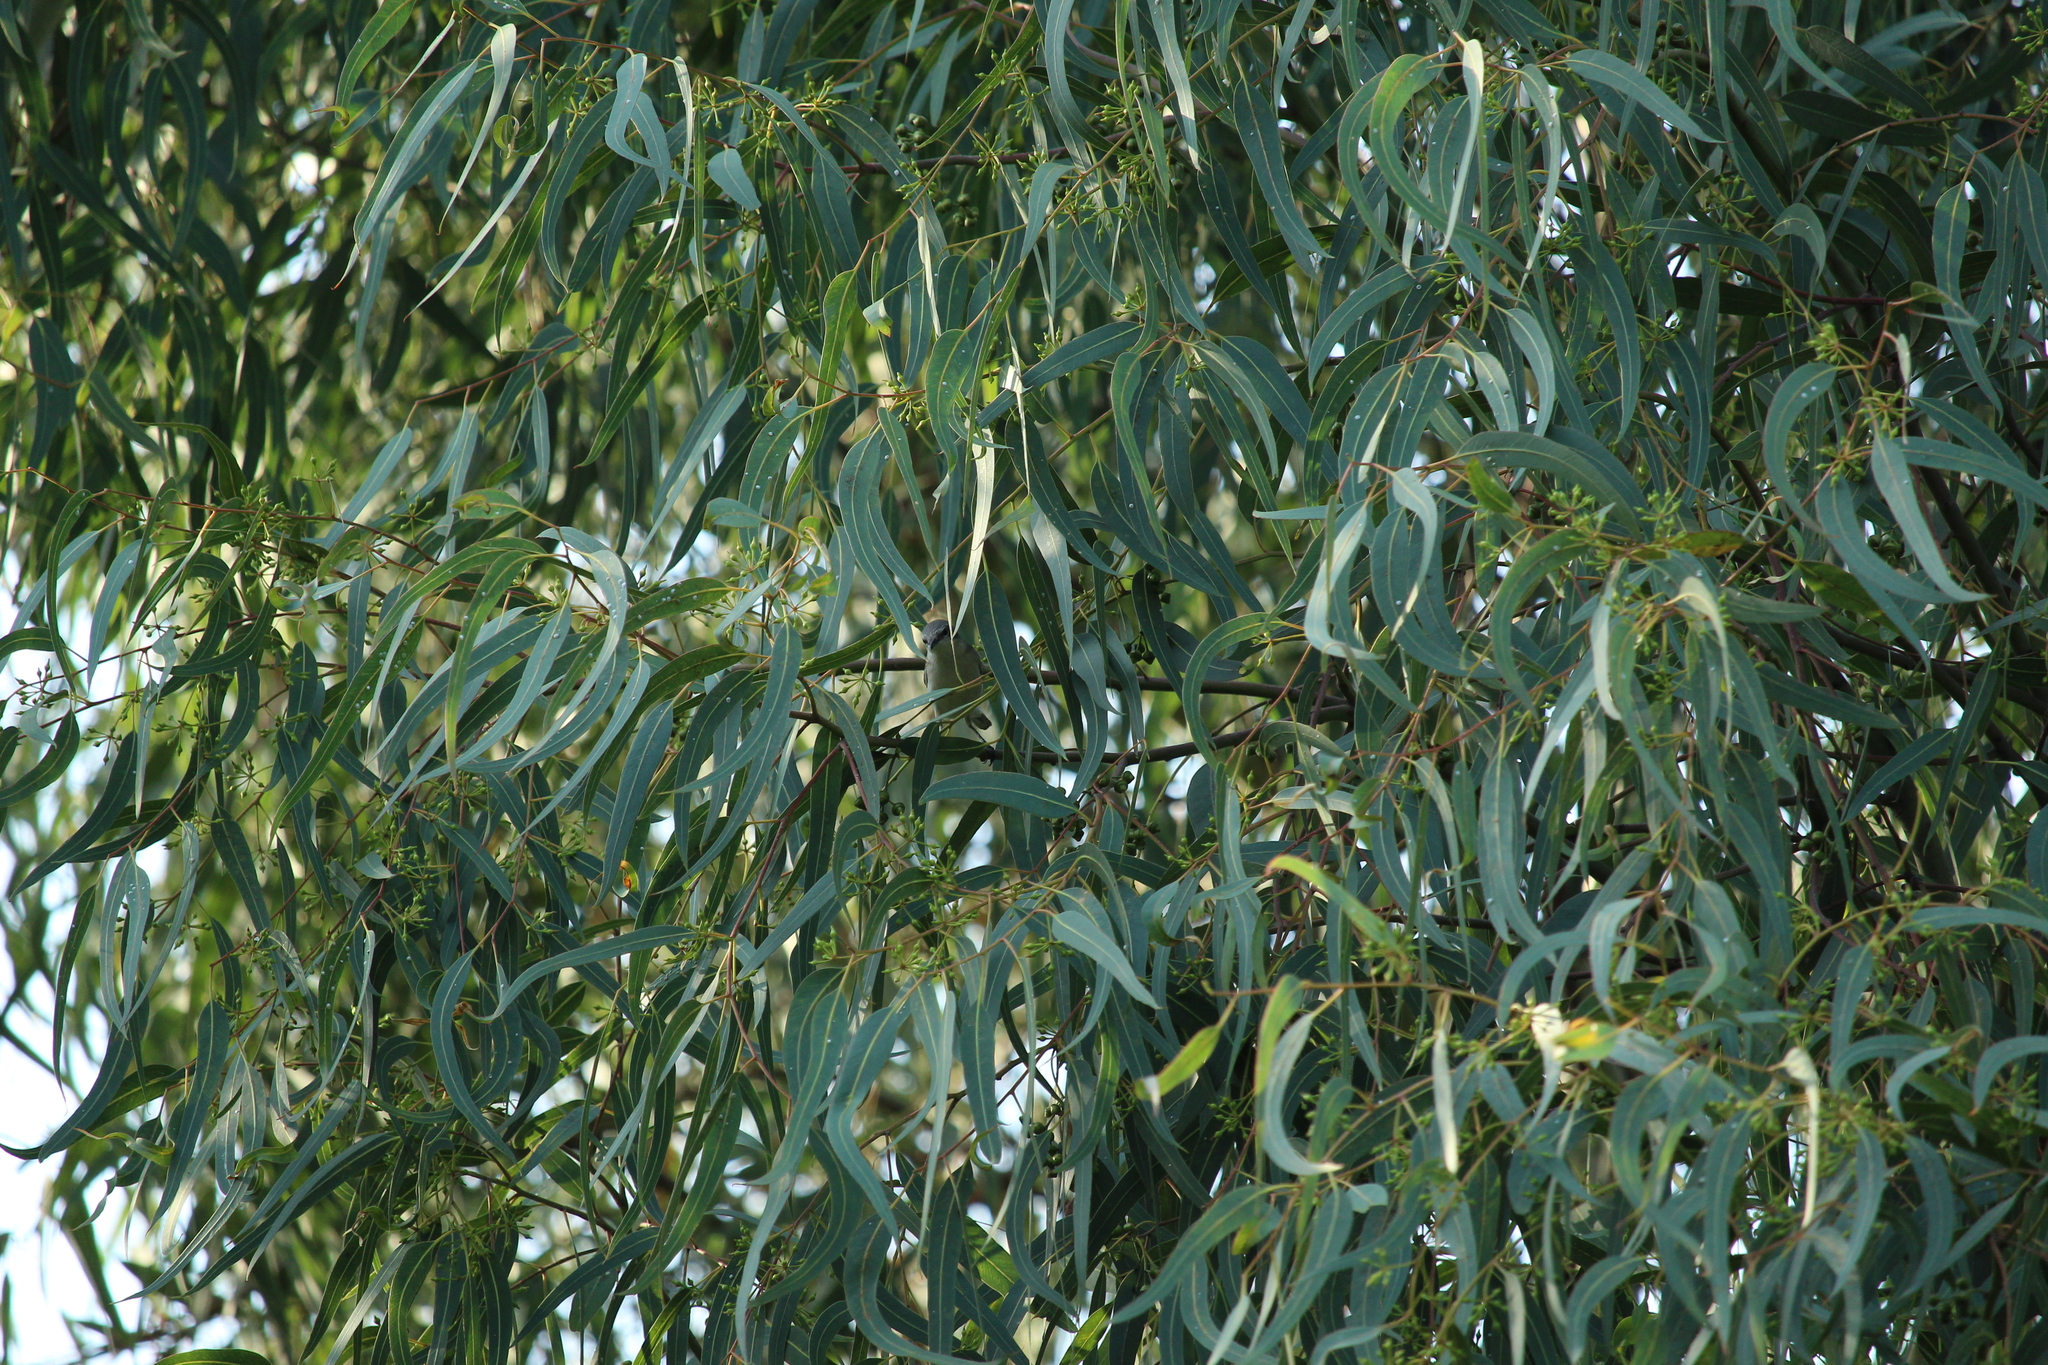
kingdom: Animalia
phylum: Chordata
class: Aves
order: Passeriformes
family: Sylviidae
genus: Sylvia
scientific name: Sylvia curruca
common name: Lesser whitethroat
